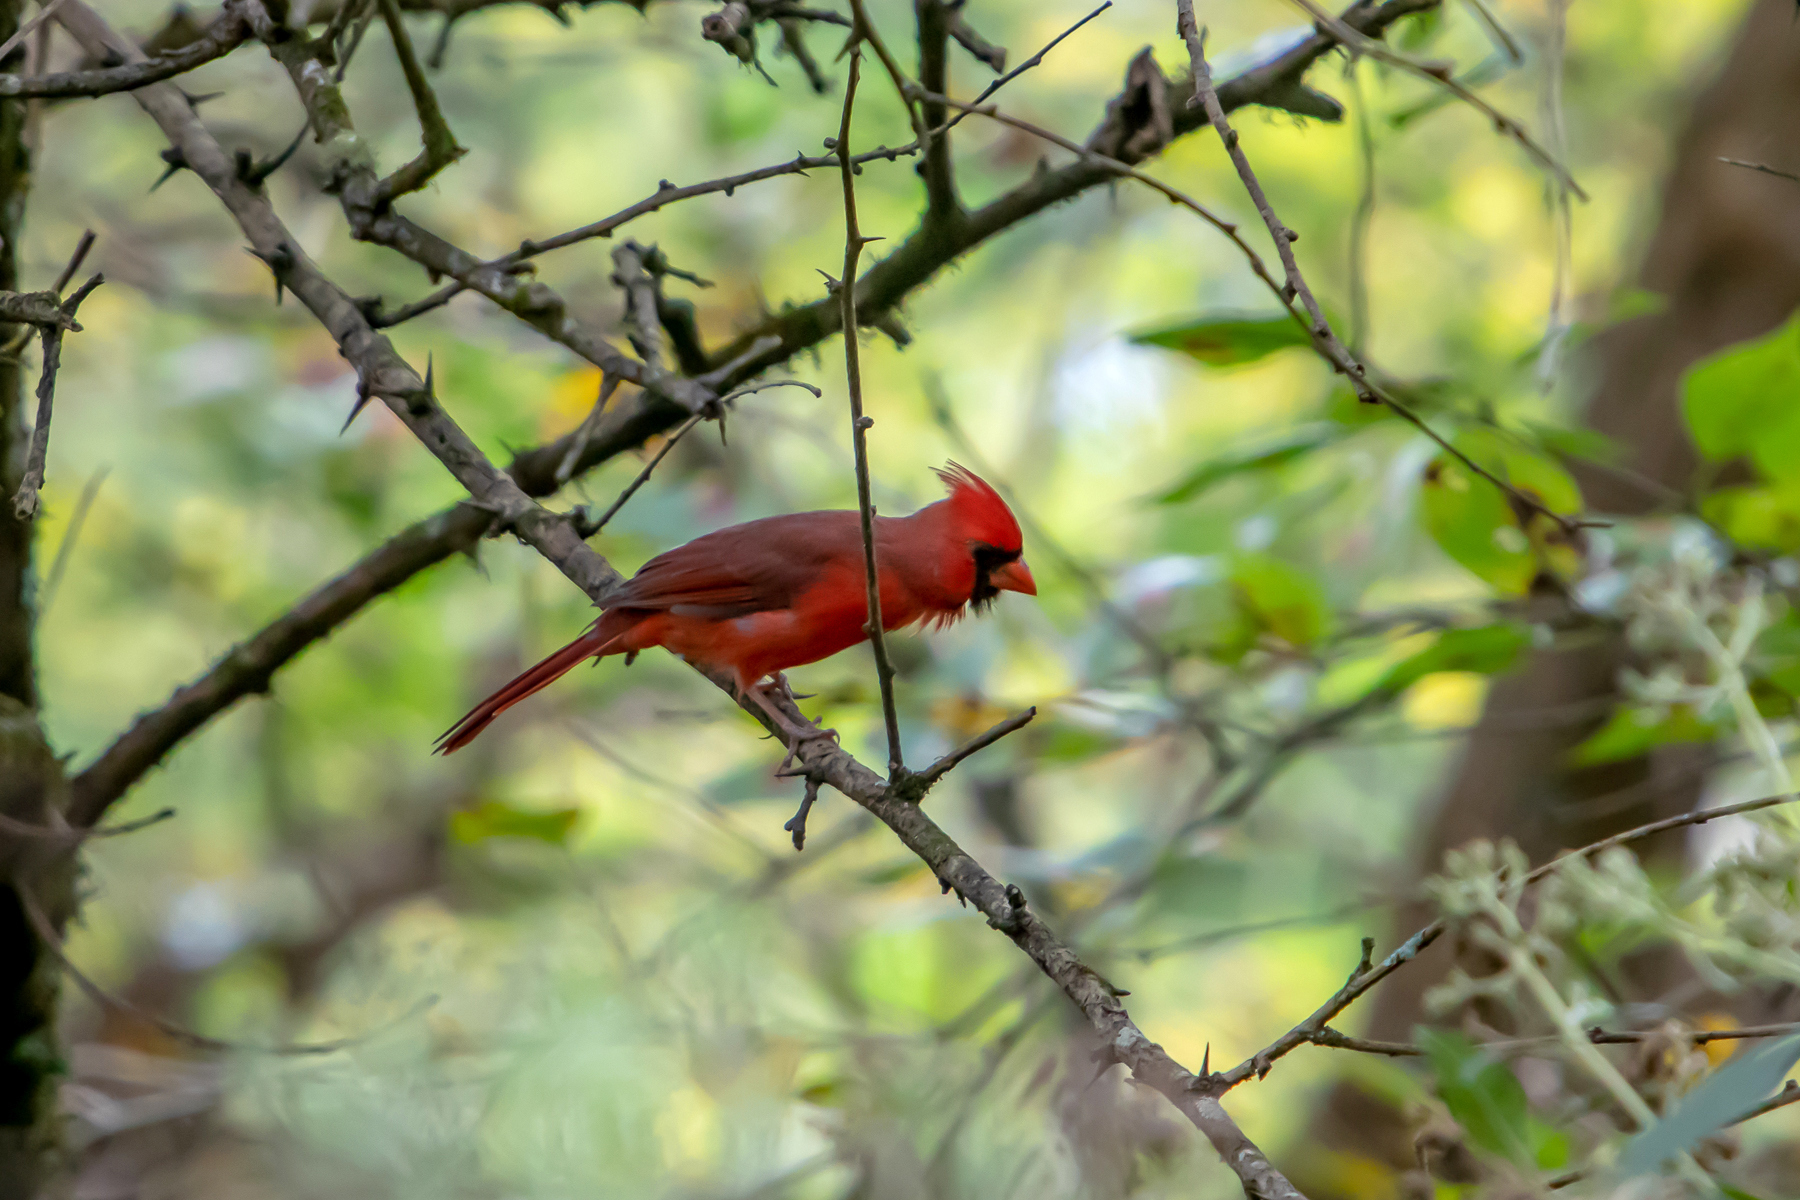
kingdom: Animalia
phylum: Chordata
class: Aves
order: Passeriformes
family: Cardinalidae
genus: Cardinalis
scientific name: Cardinalis cardinalis
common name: Northern cardinal
